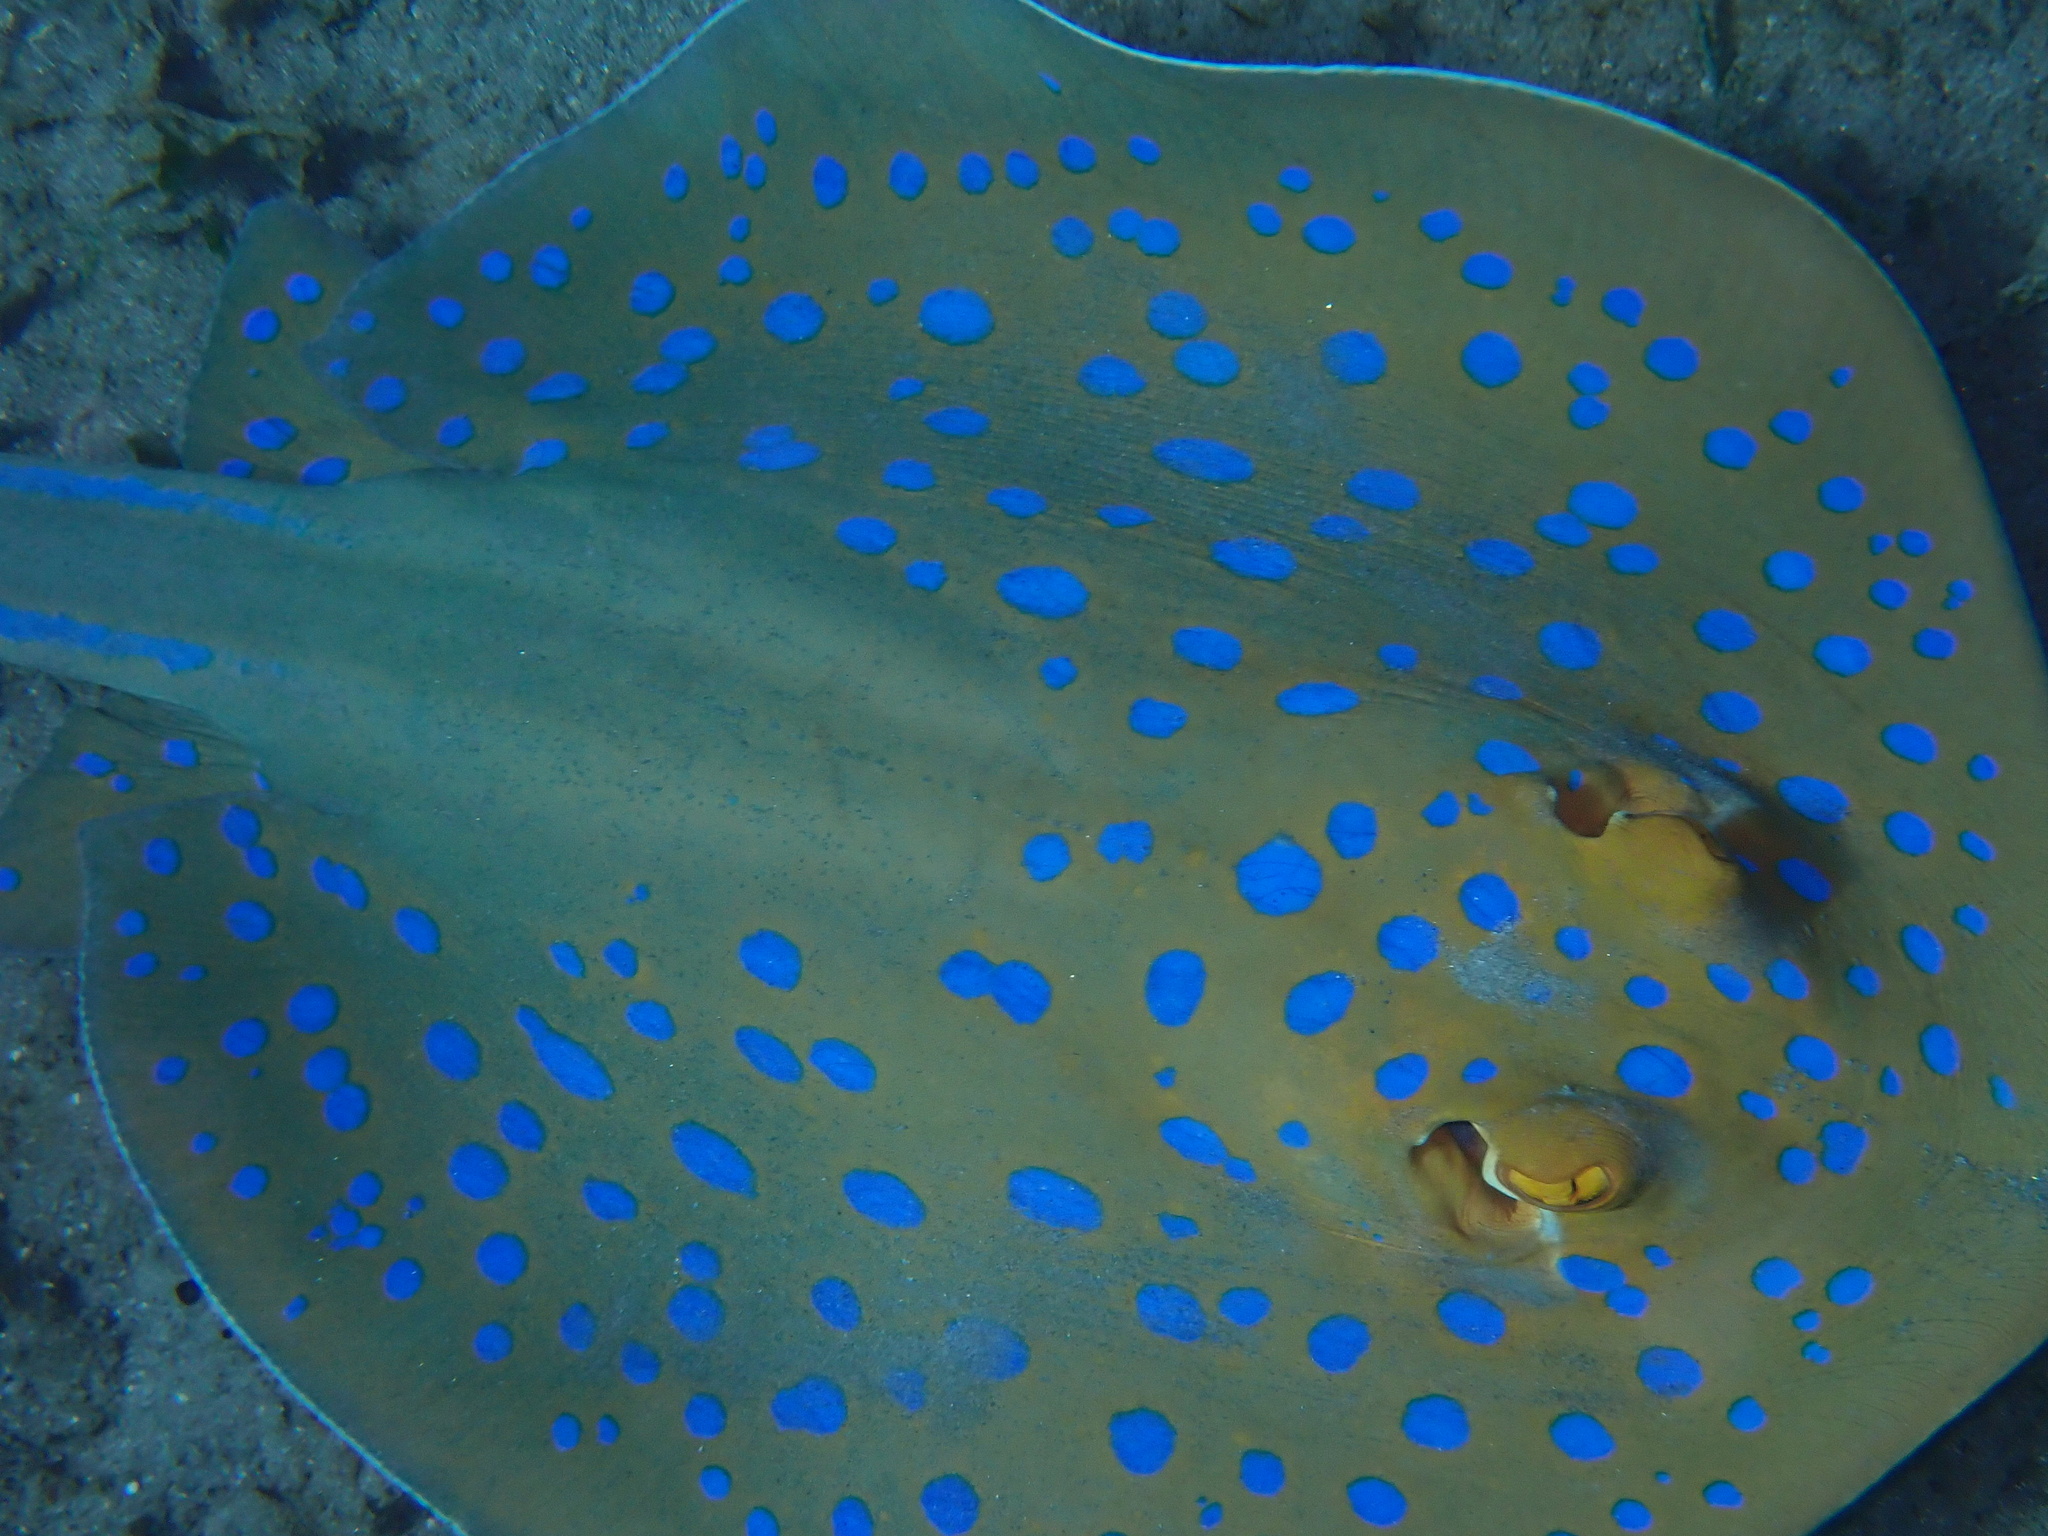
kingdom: Animalia
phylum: Chordata
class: Elasmobranchii
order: Myliobatiformes
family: Dasyatidae
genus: Taeniura
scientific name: Taeniura lymma
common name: Bluespotted ribbontail ray
